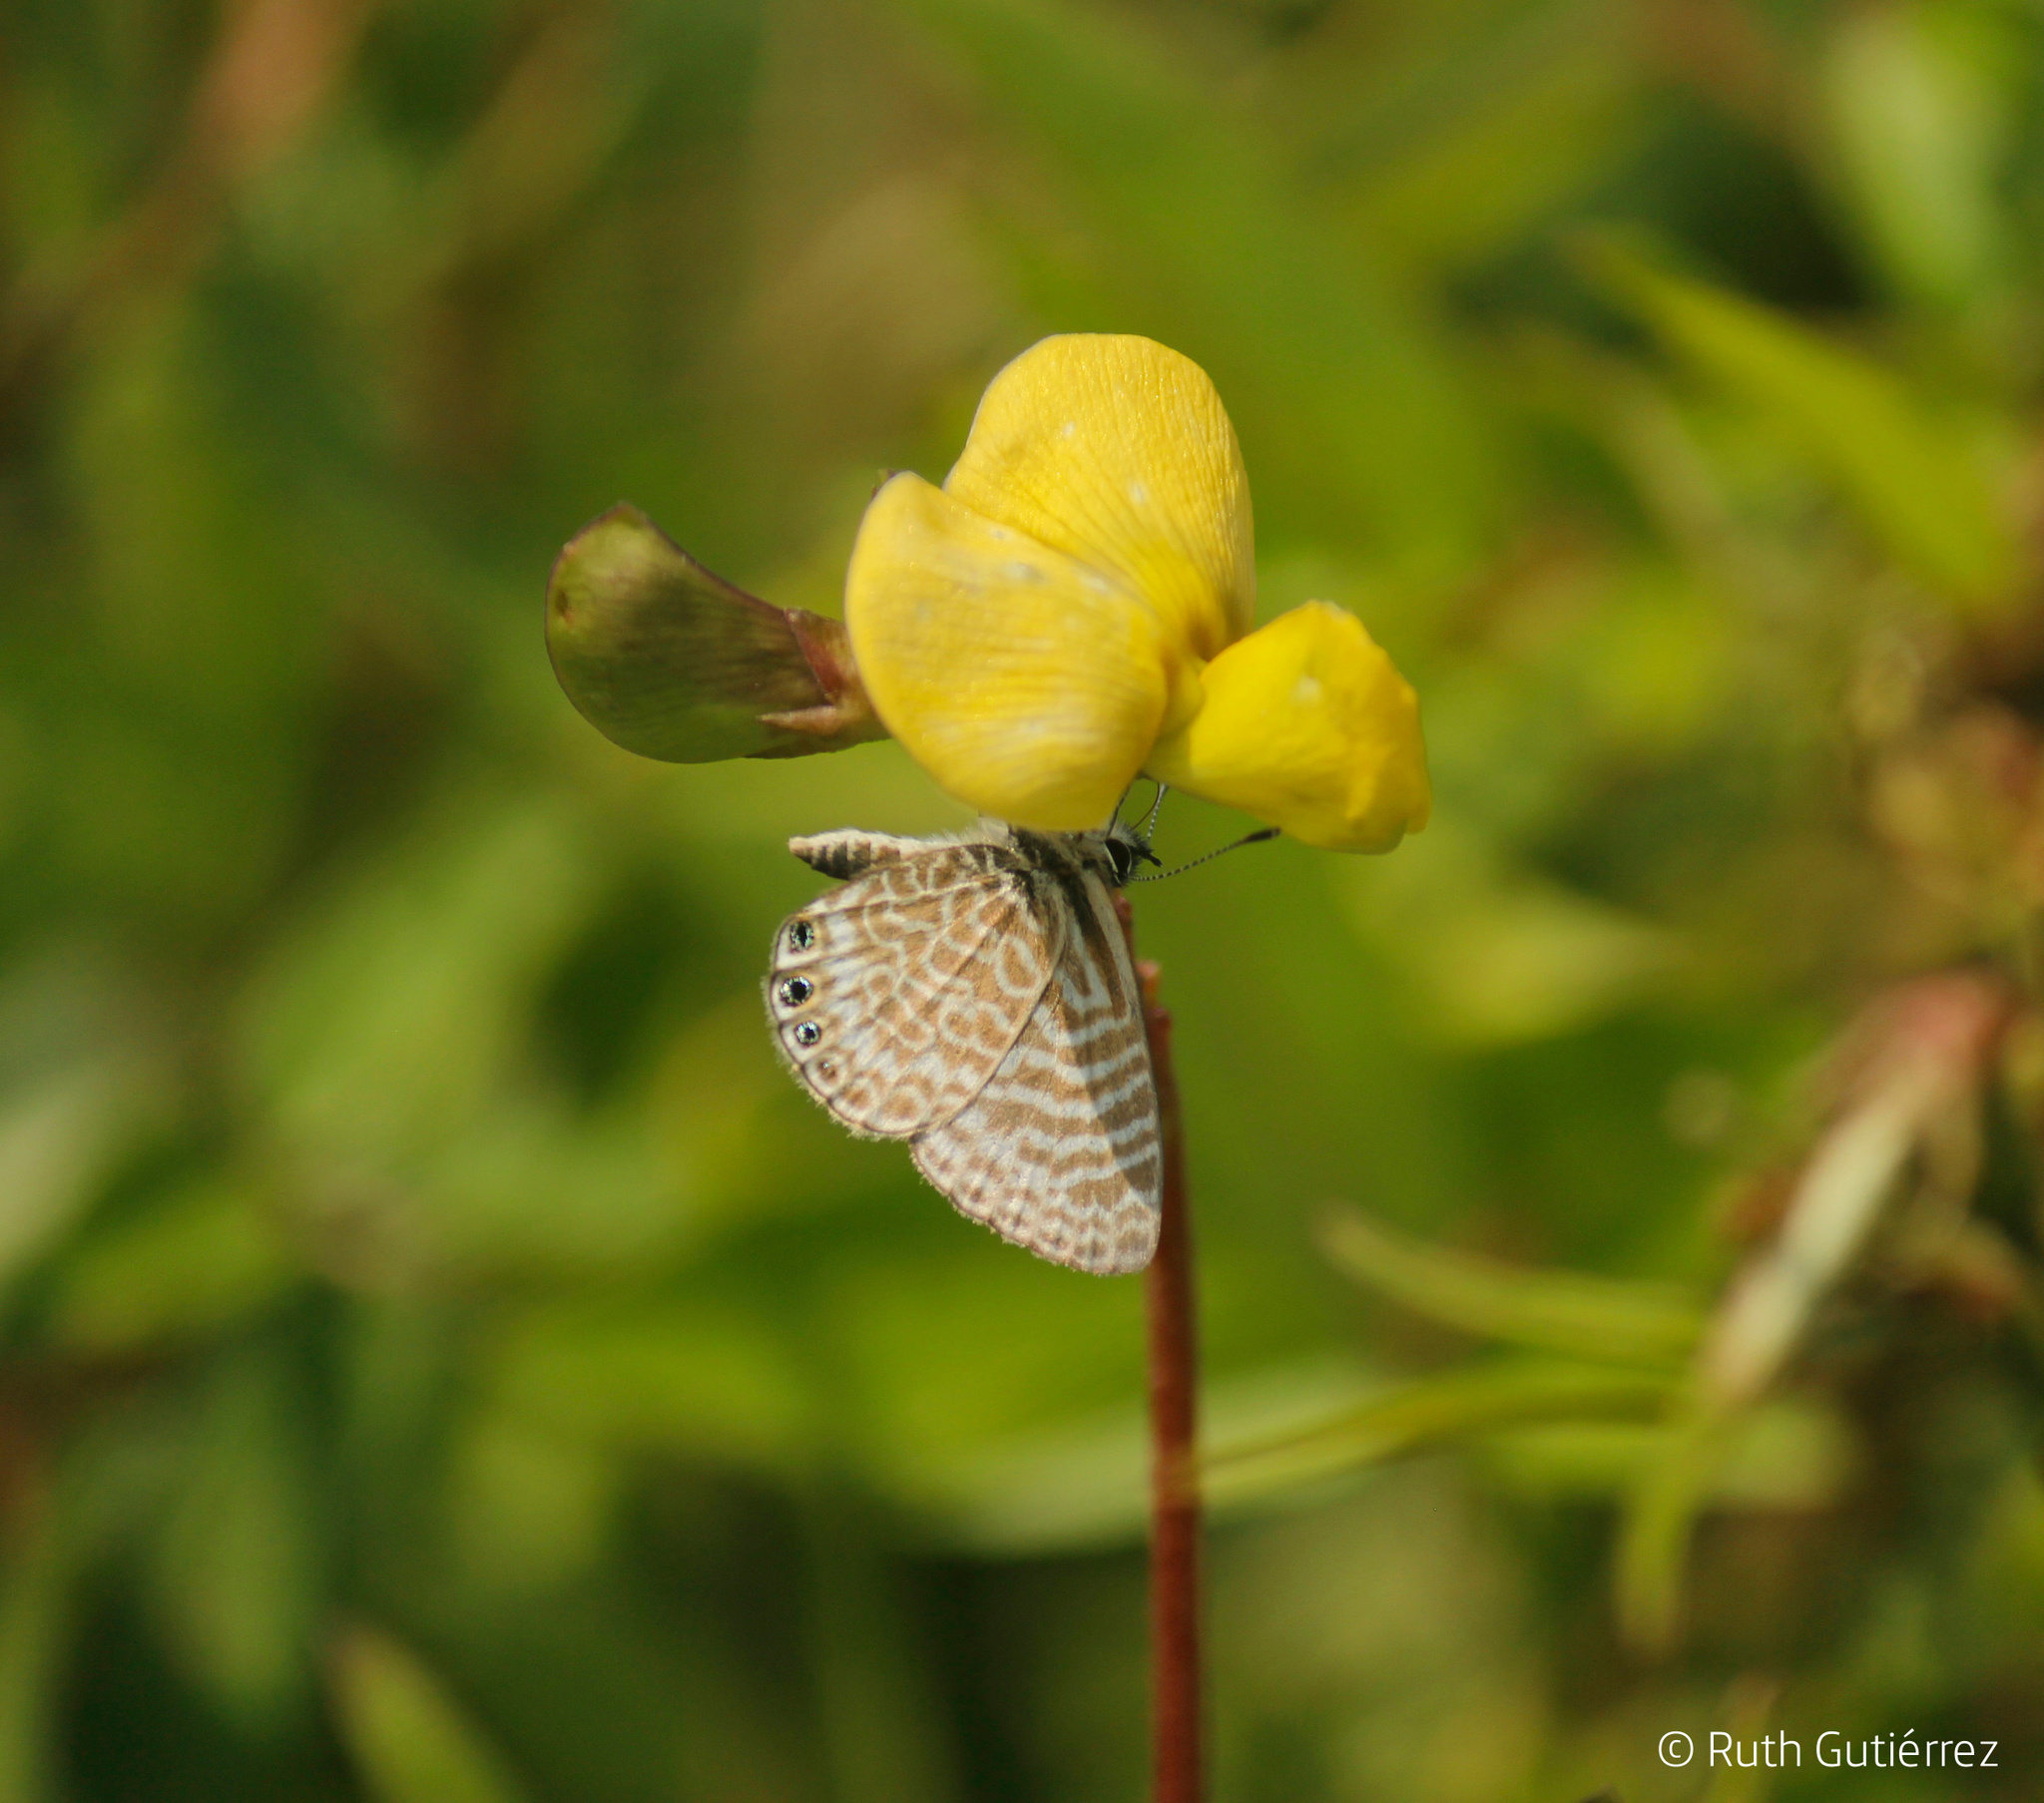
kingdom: Animalia
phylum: Arthropoda
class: Insecta
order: Lepidoptera
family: Lycaenidae
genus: Leptotes
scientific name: Leptotes trigemmatus
